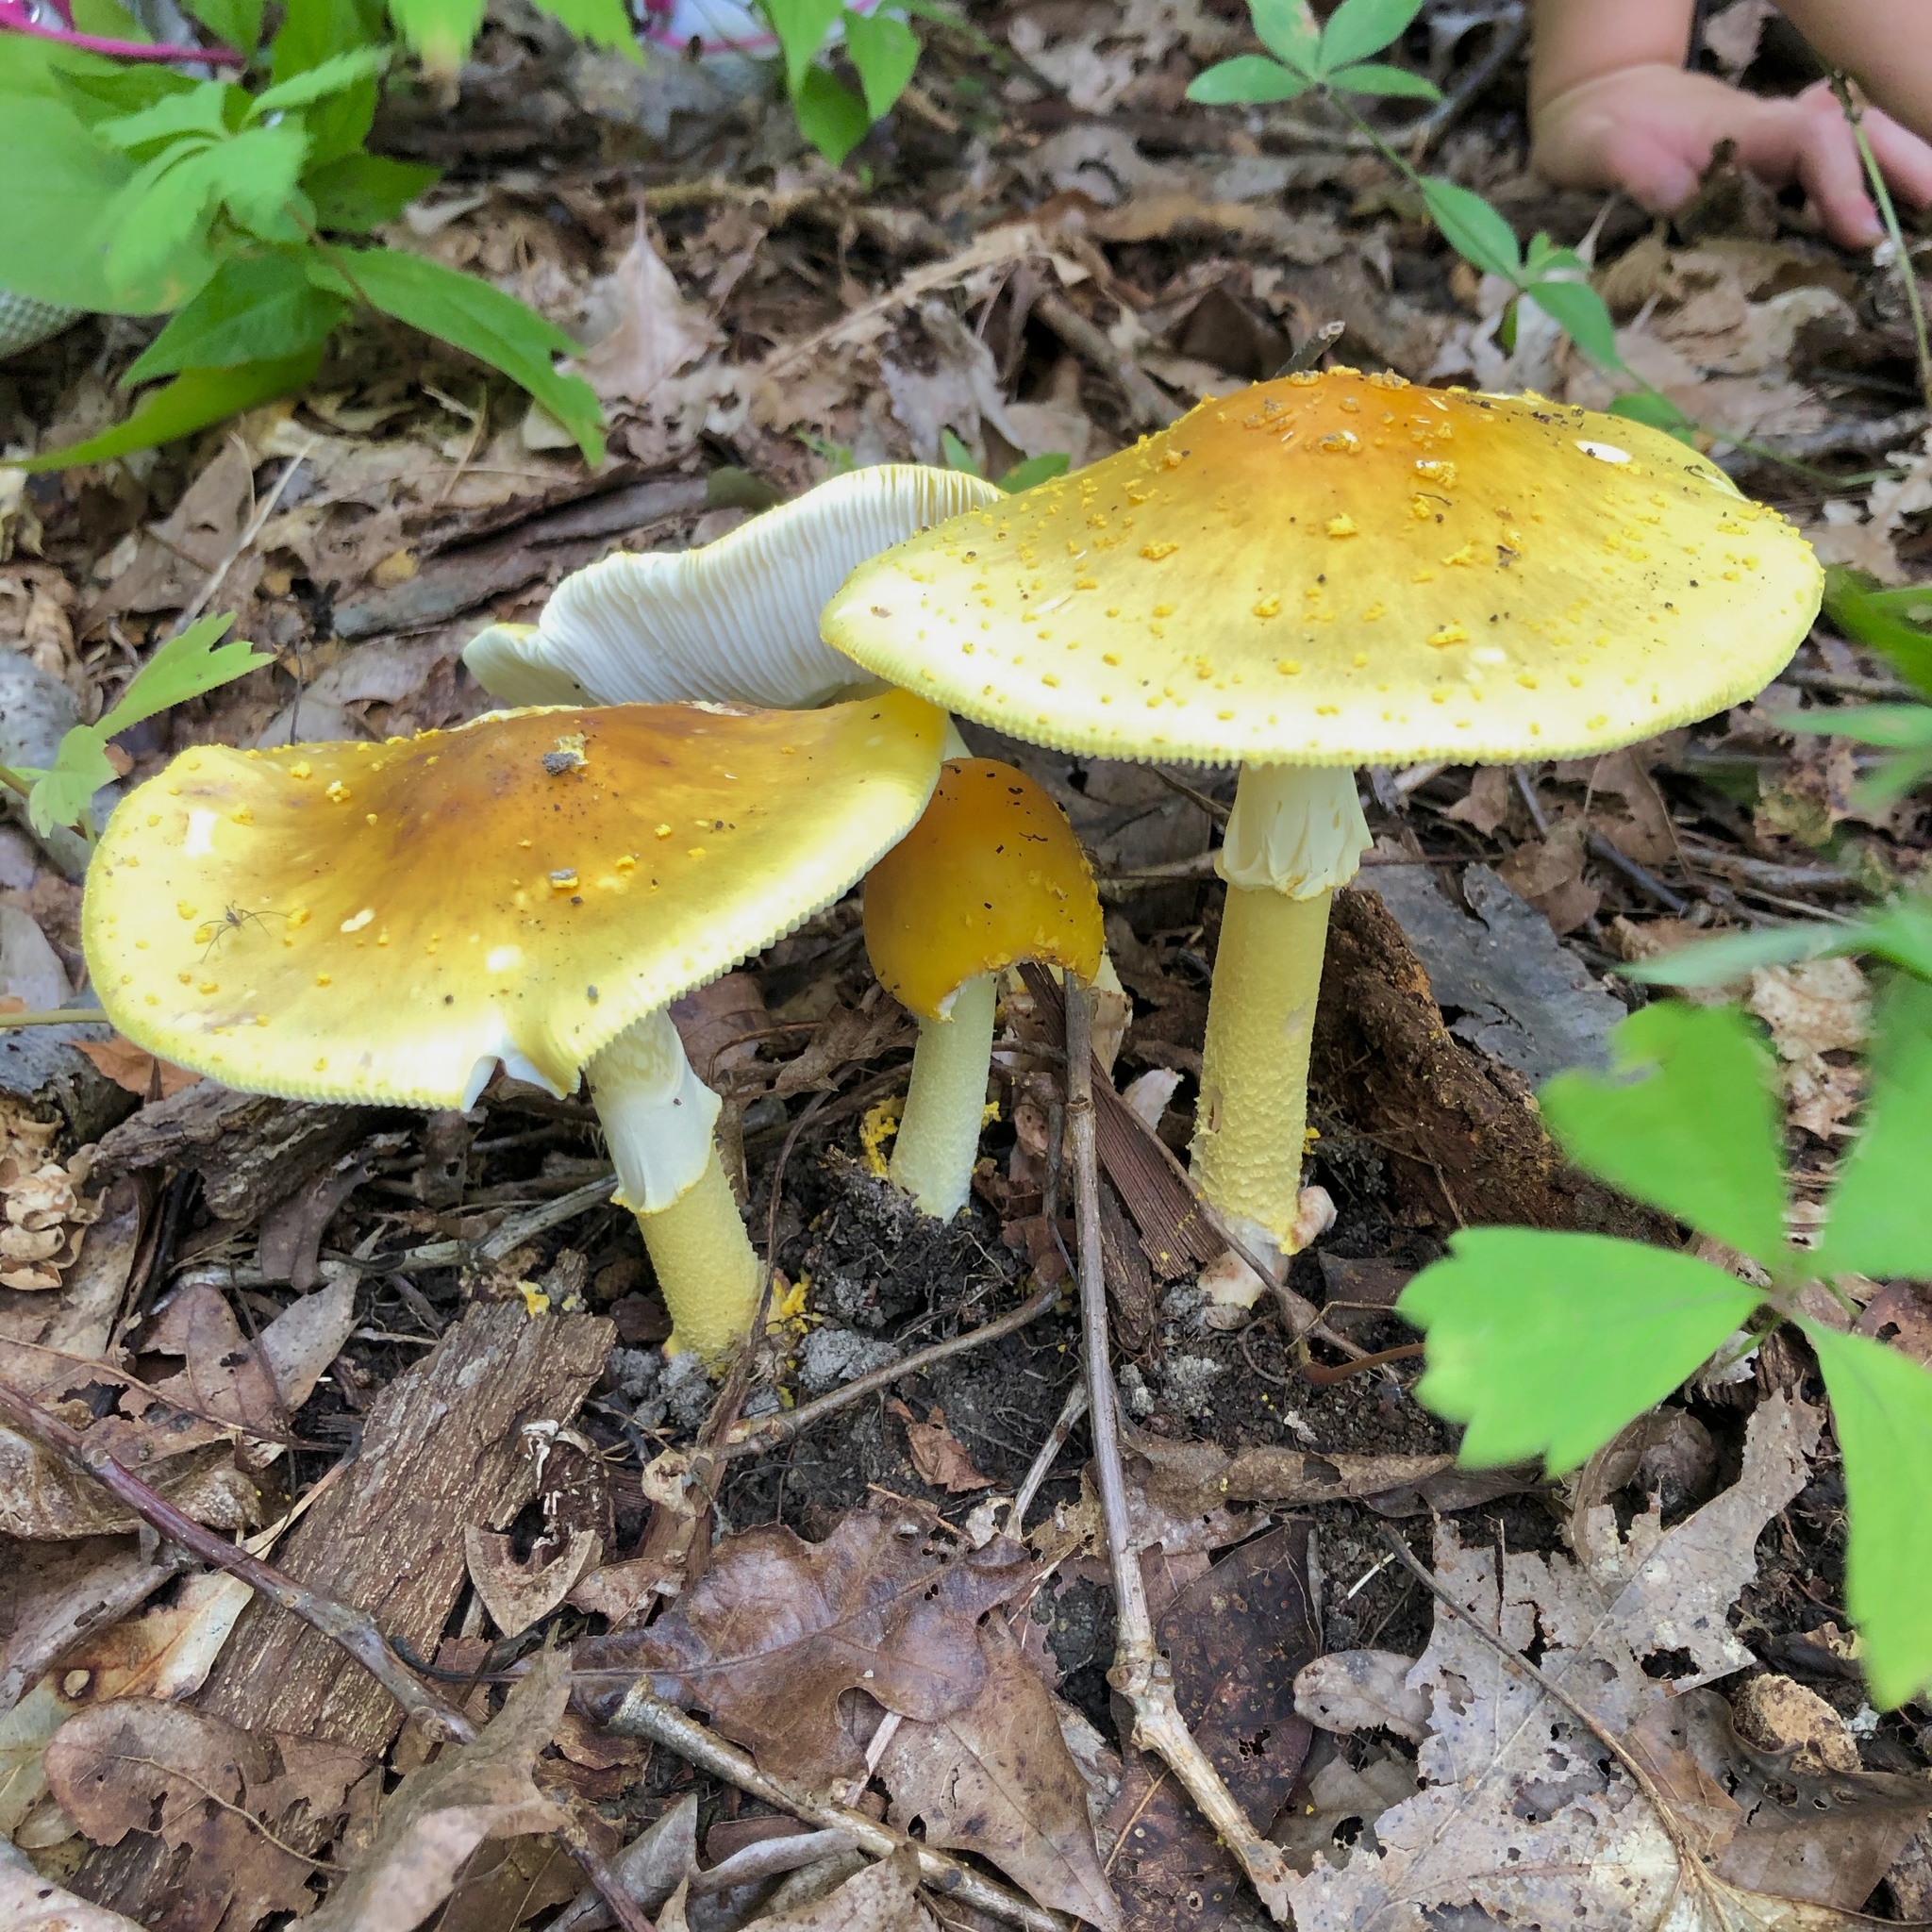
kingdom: Fungi
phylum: Basidiomycota
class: Agaricomycetes
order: Agaricales
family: Amanitaceae
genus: Amanita
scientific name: Amanita flavorubens
